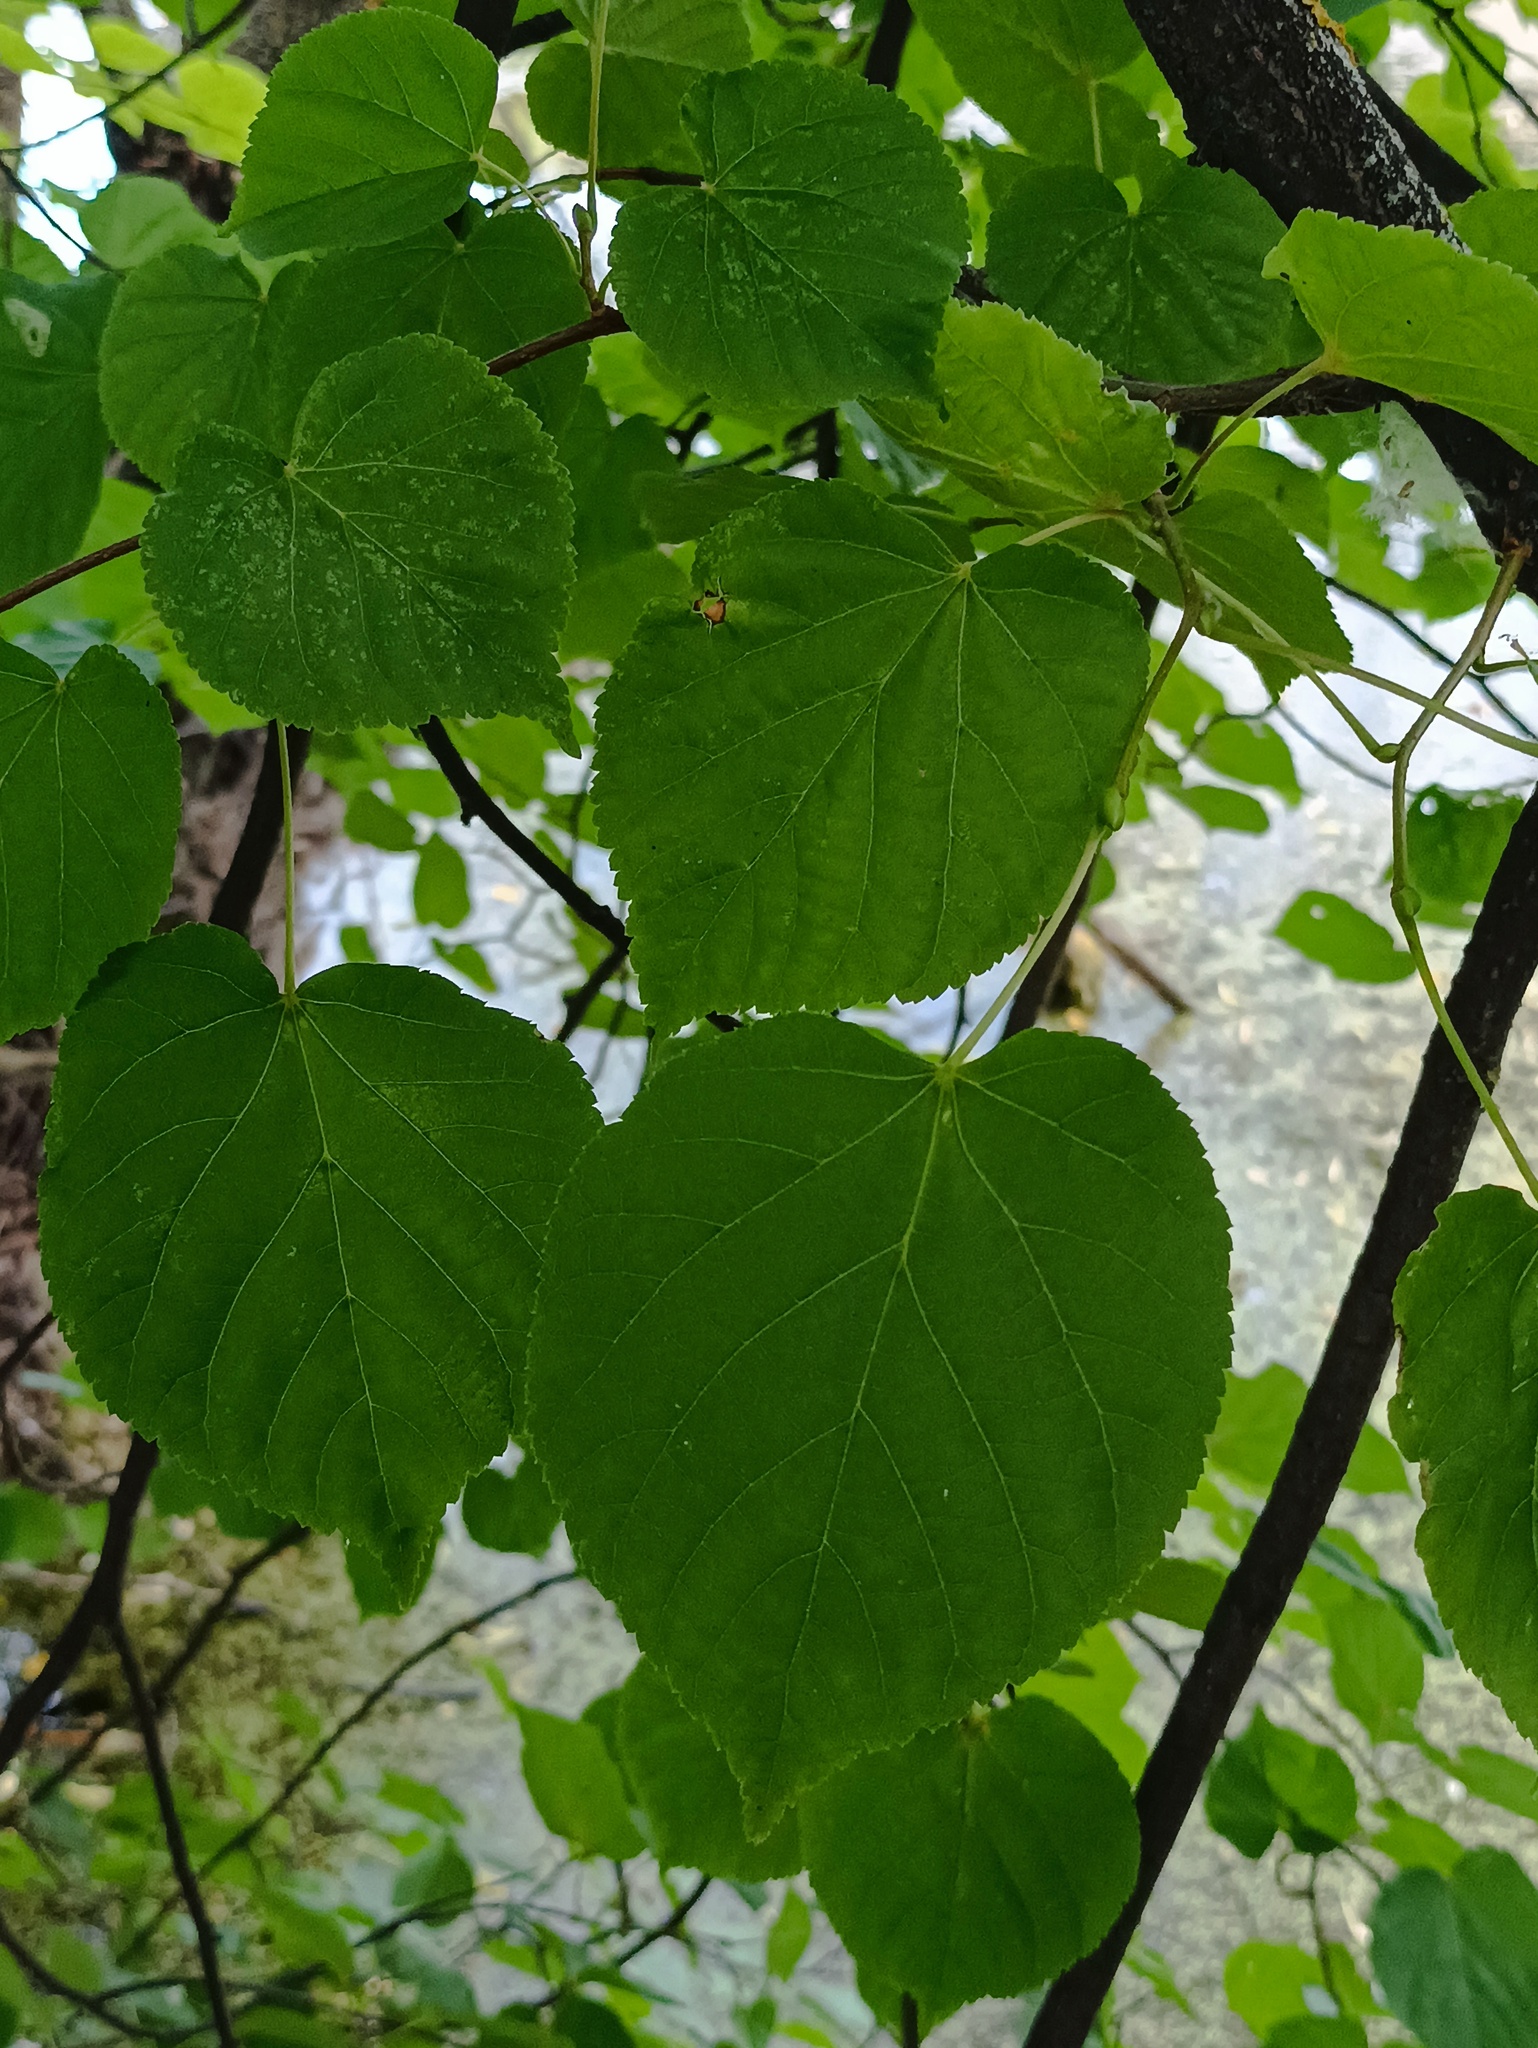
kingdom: Plantae
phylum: Tracheophyta
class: Magnoliopsida
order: Malvales
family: Malvaceae
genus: Tilia
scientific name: Tilia cordata
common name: Small-leaved lime
